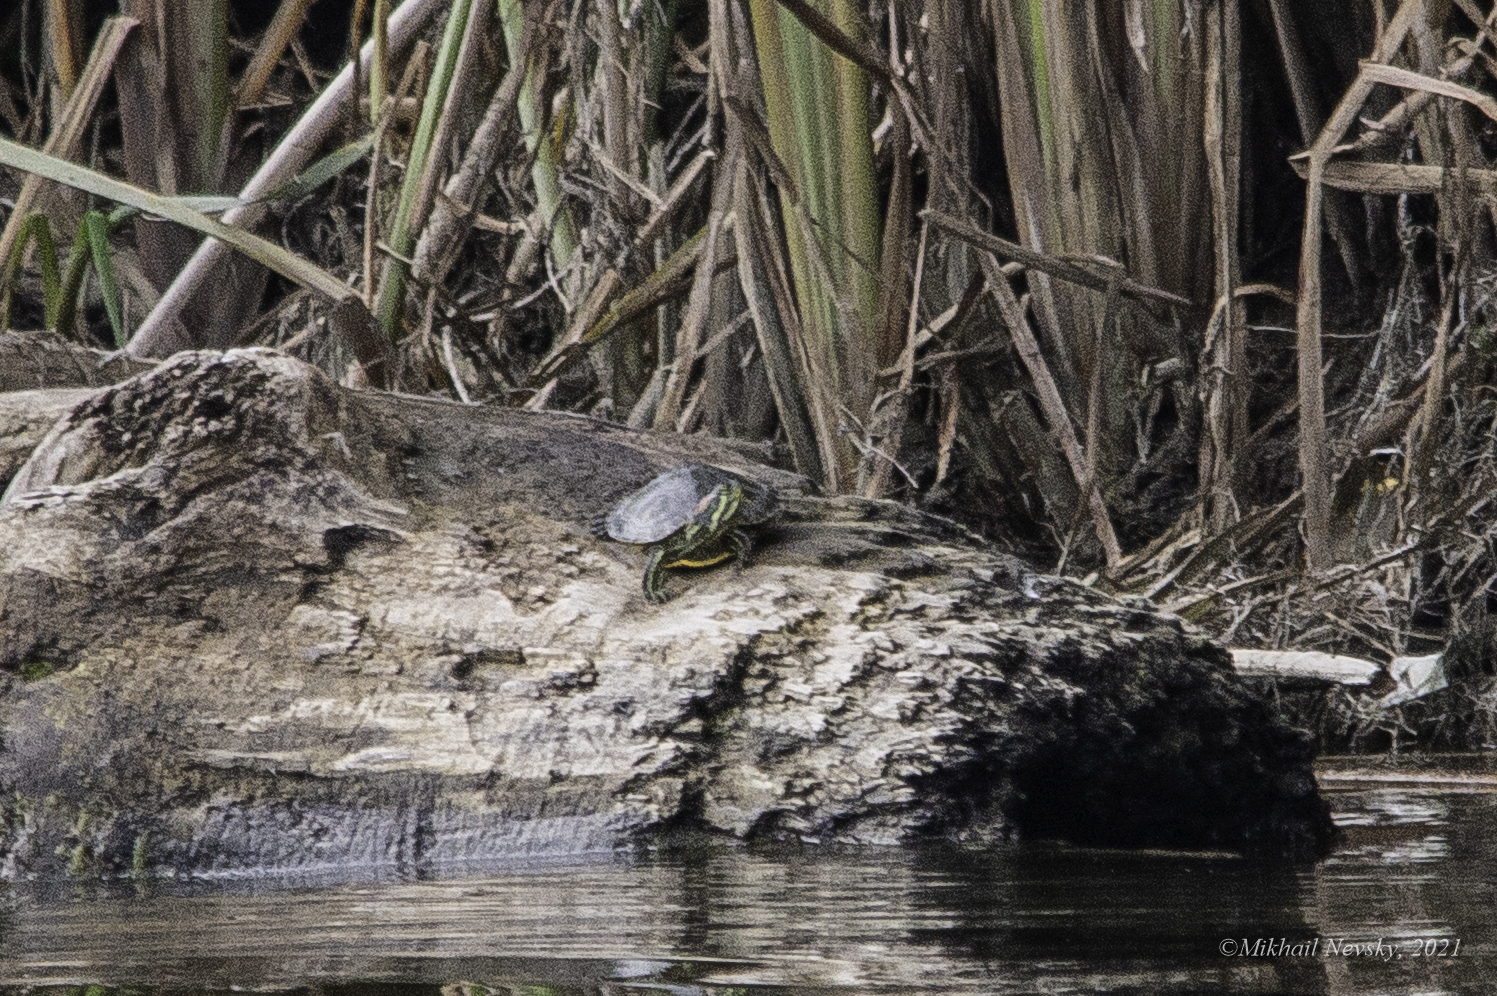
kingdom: Animalia
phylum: Chordata
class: Testudines
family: Emydidae
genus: Trachemys
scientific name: Trachemys scripta
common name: Slider
